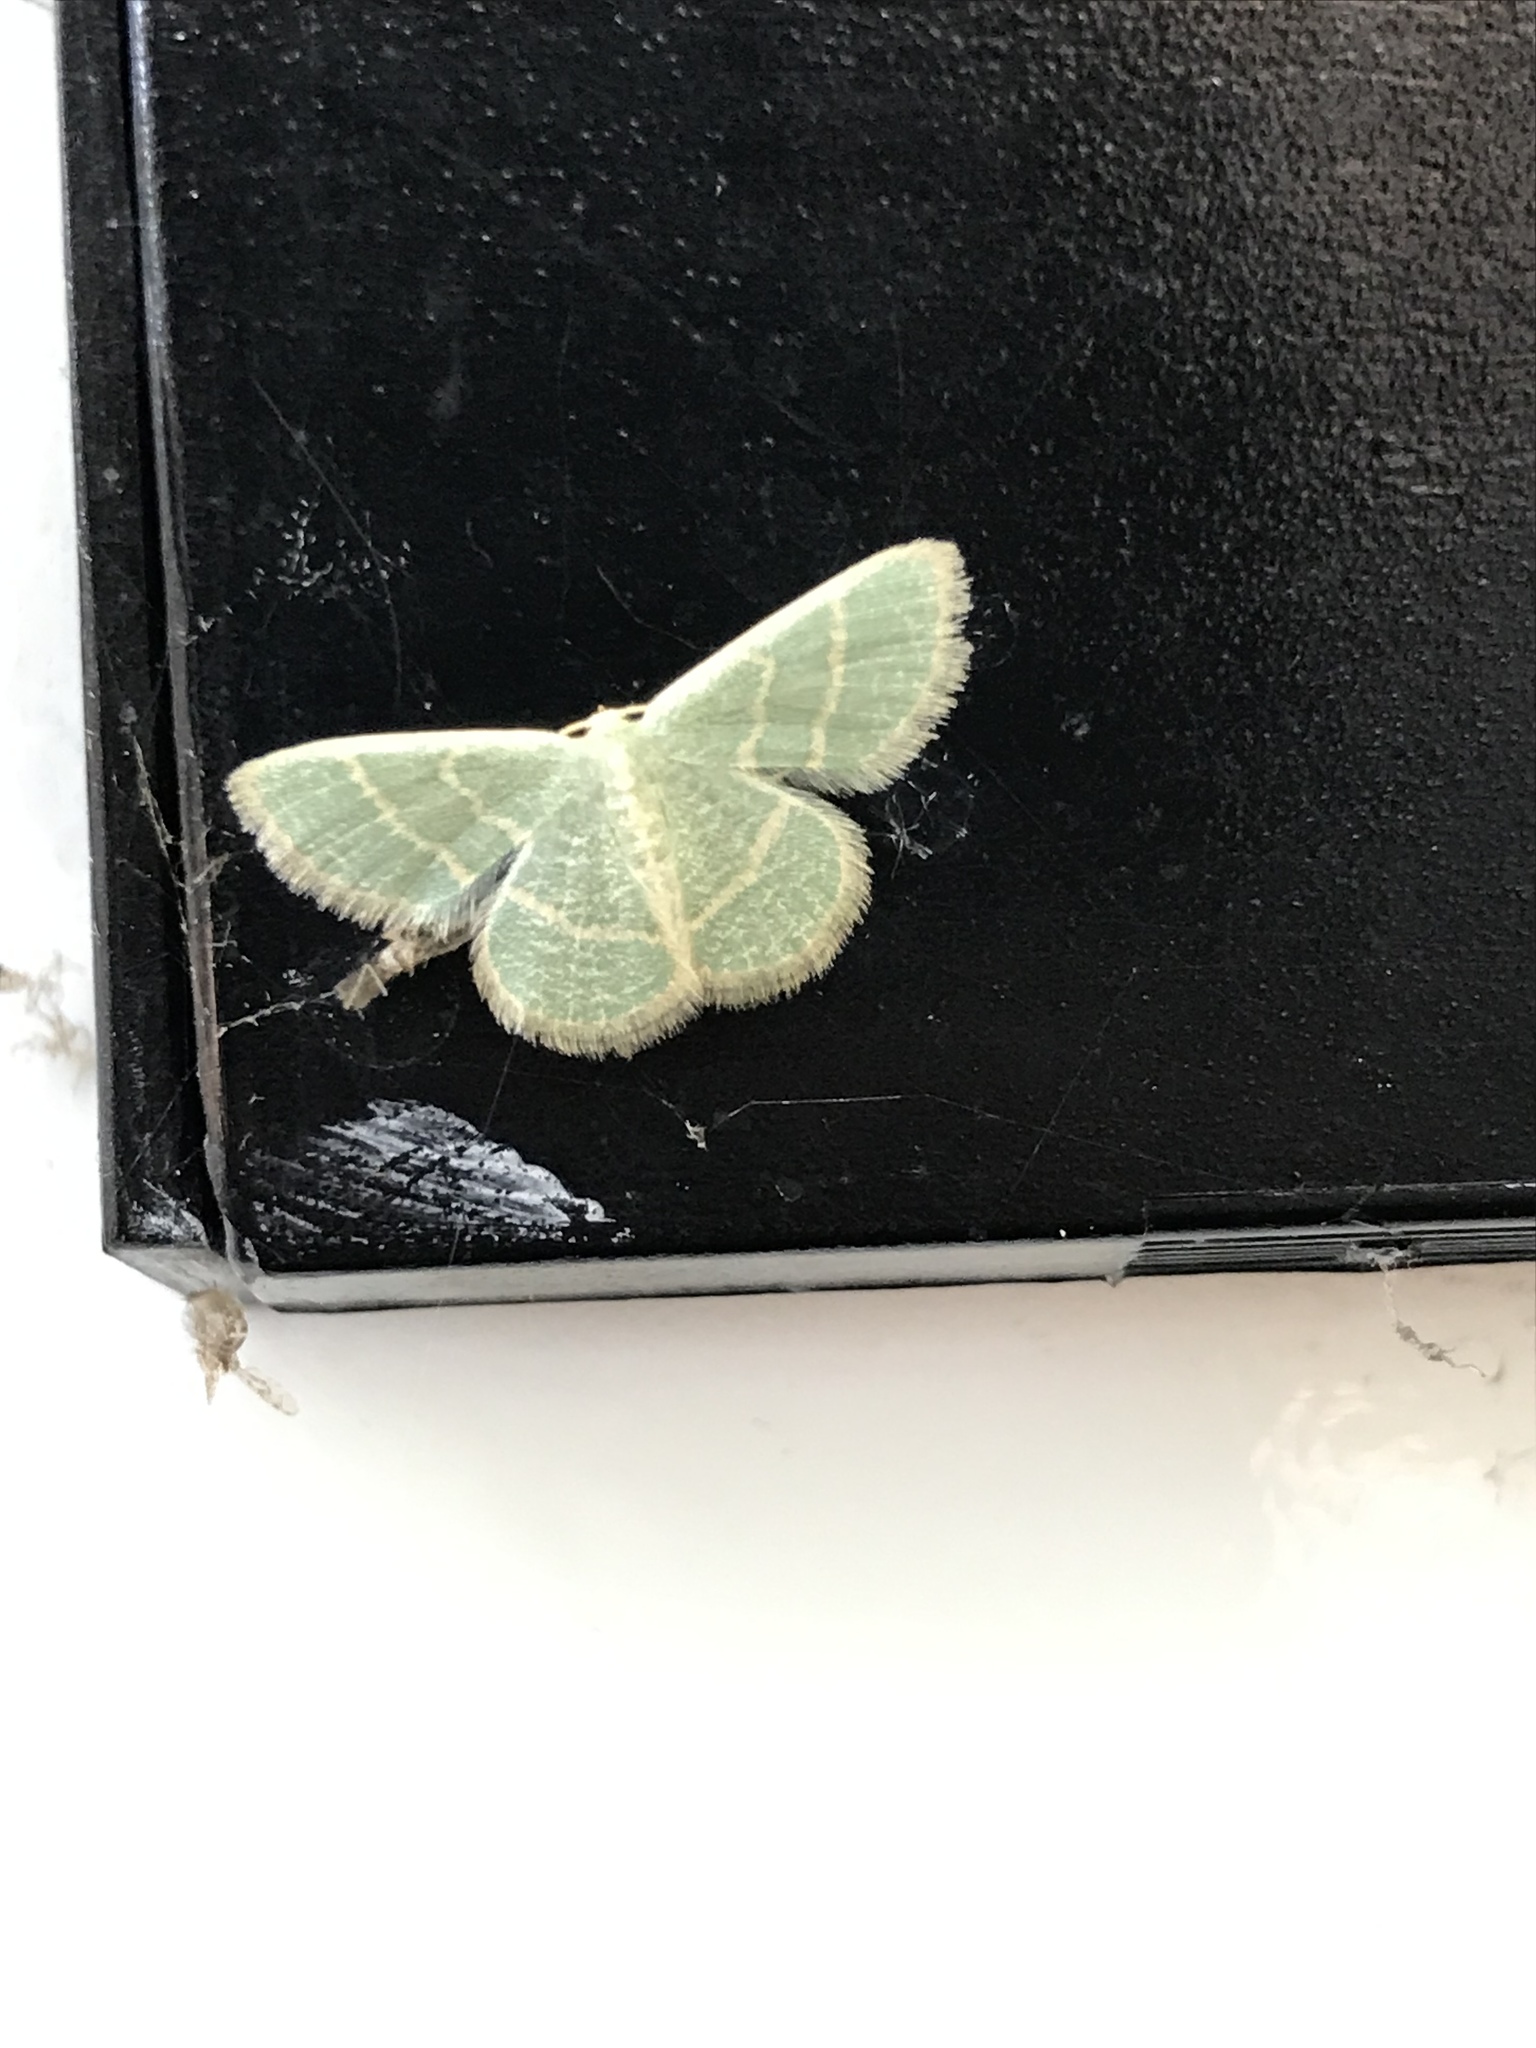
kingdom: Animalia
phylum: Arthropoda
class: Insecta
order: Lepidoptera
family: Geometridae
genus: Chlorochlamys
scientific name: Chlorochlamys chloroleucaria
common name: Blackberry looper
